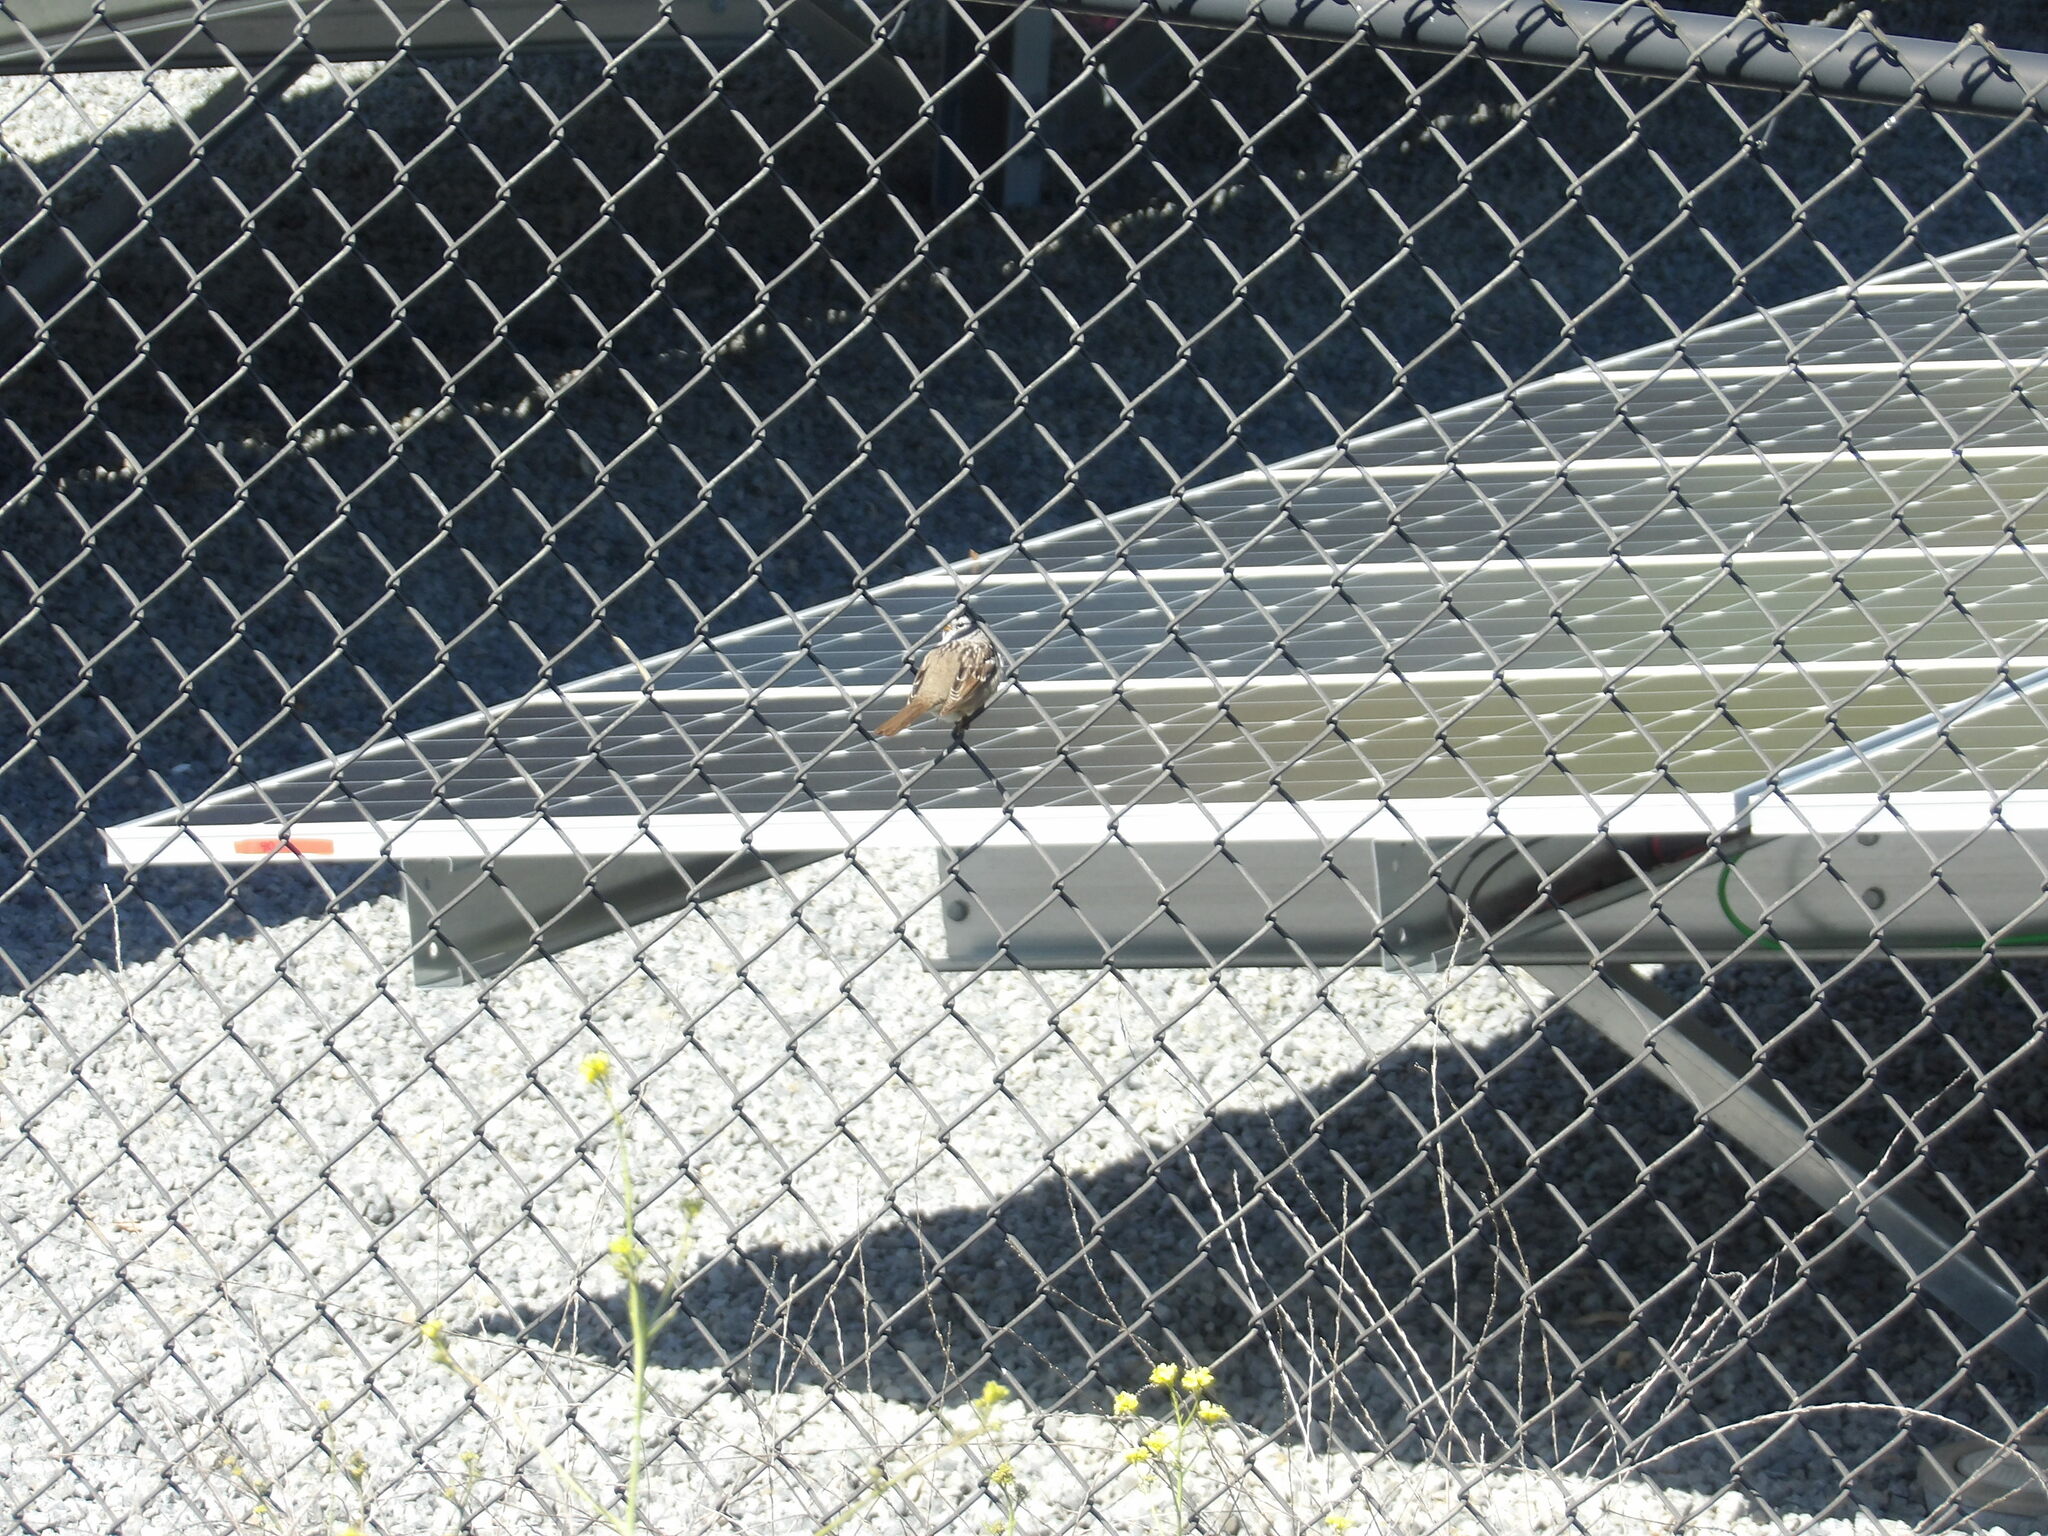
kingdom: Animalia
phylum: Chordata
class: Aves
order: Passeriformes
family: Passerellidae
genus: Zonotrichia
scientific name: Zonotrichia leucophrys
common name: White-crowned sparrow
